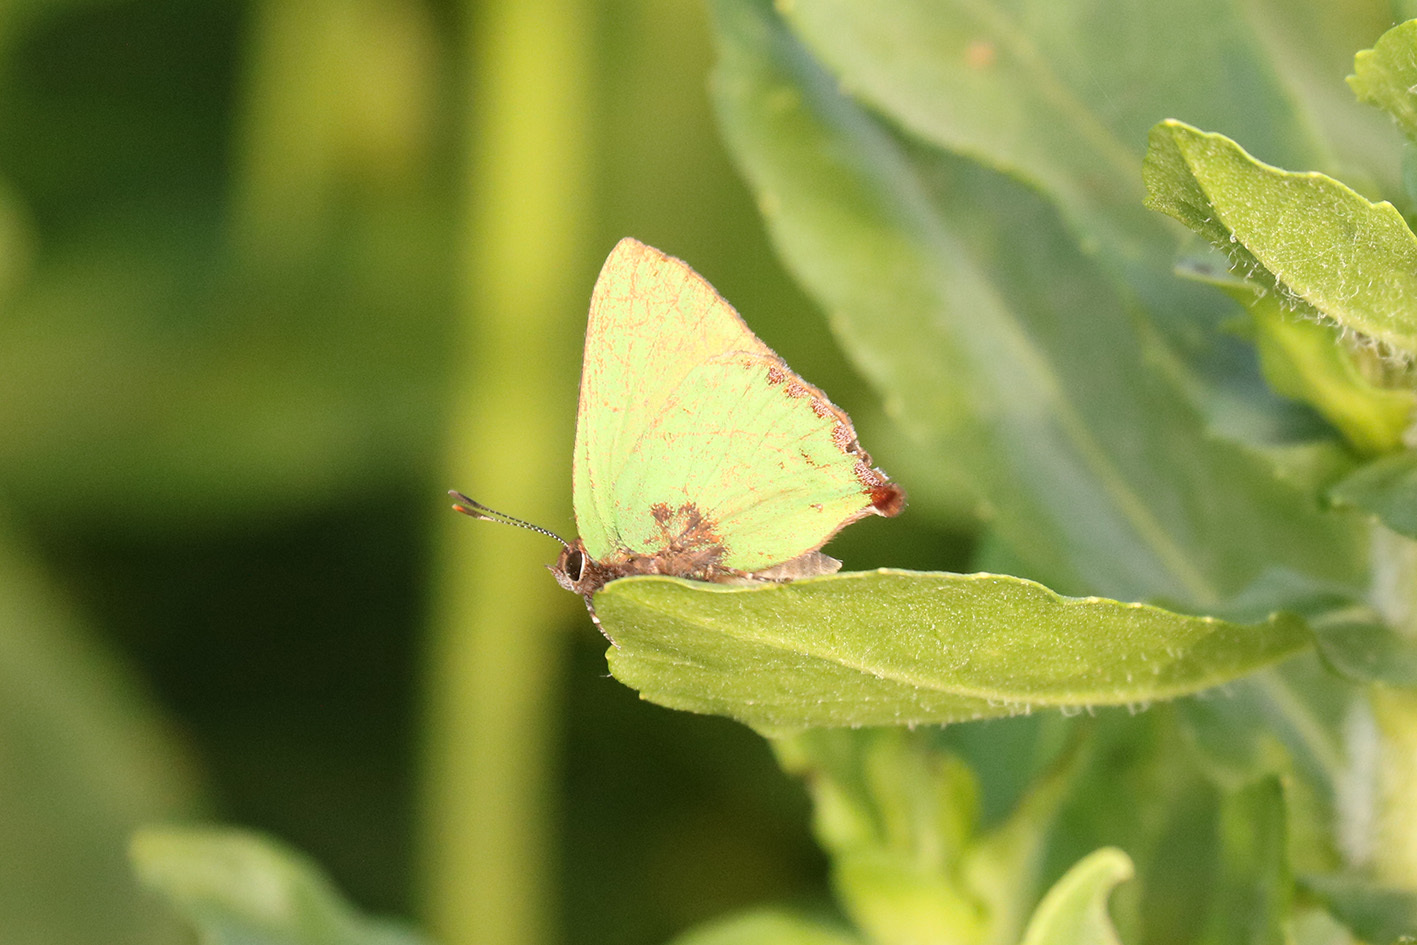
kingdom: Animalia
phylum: Arthropoda
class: Insecta
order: Lepidoptera
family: Lycaenidae
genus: Cyanophrys
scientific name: Cyanophrys
